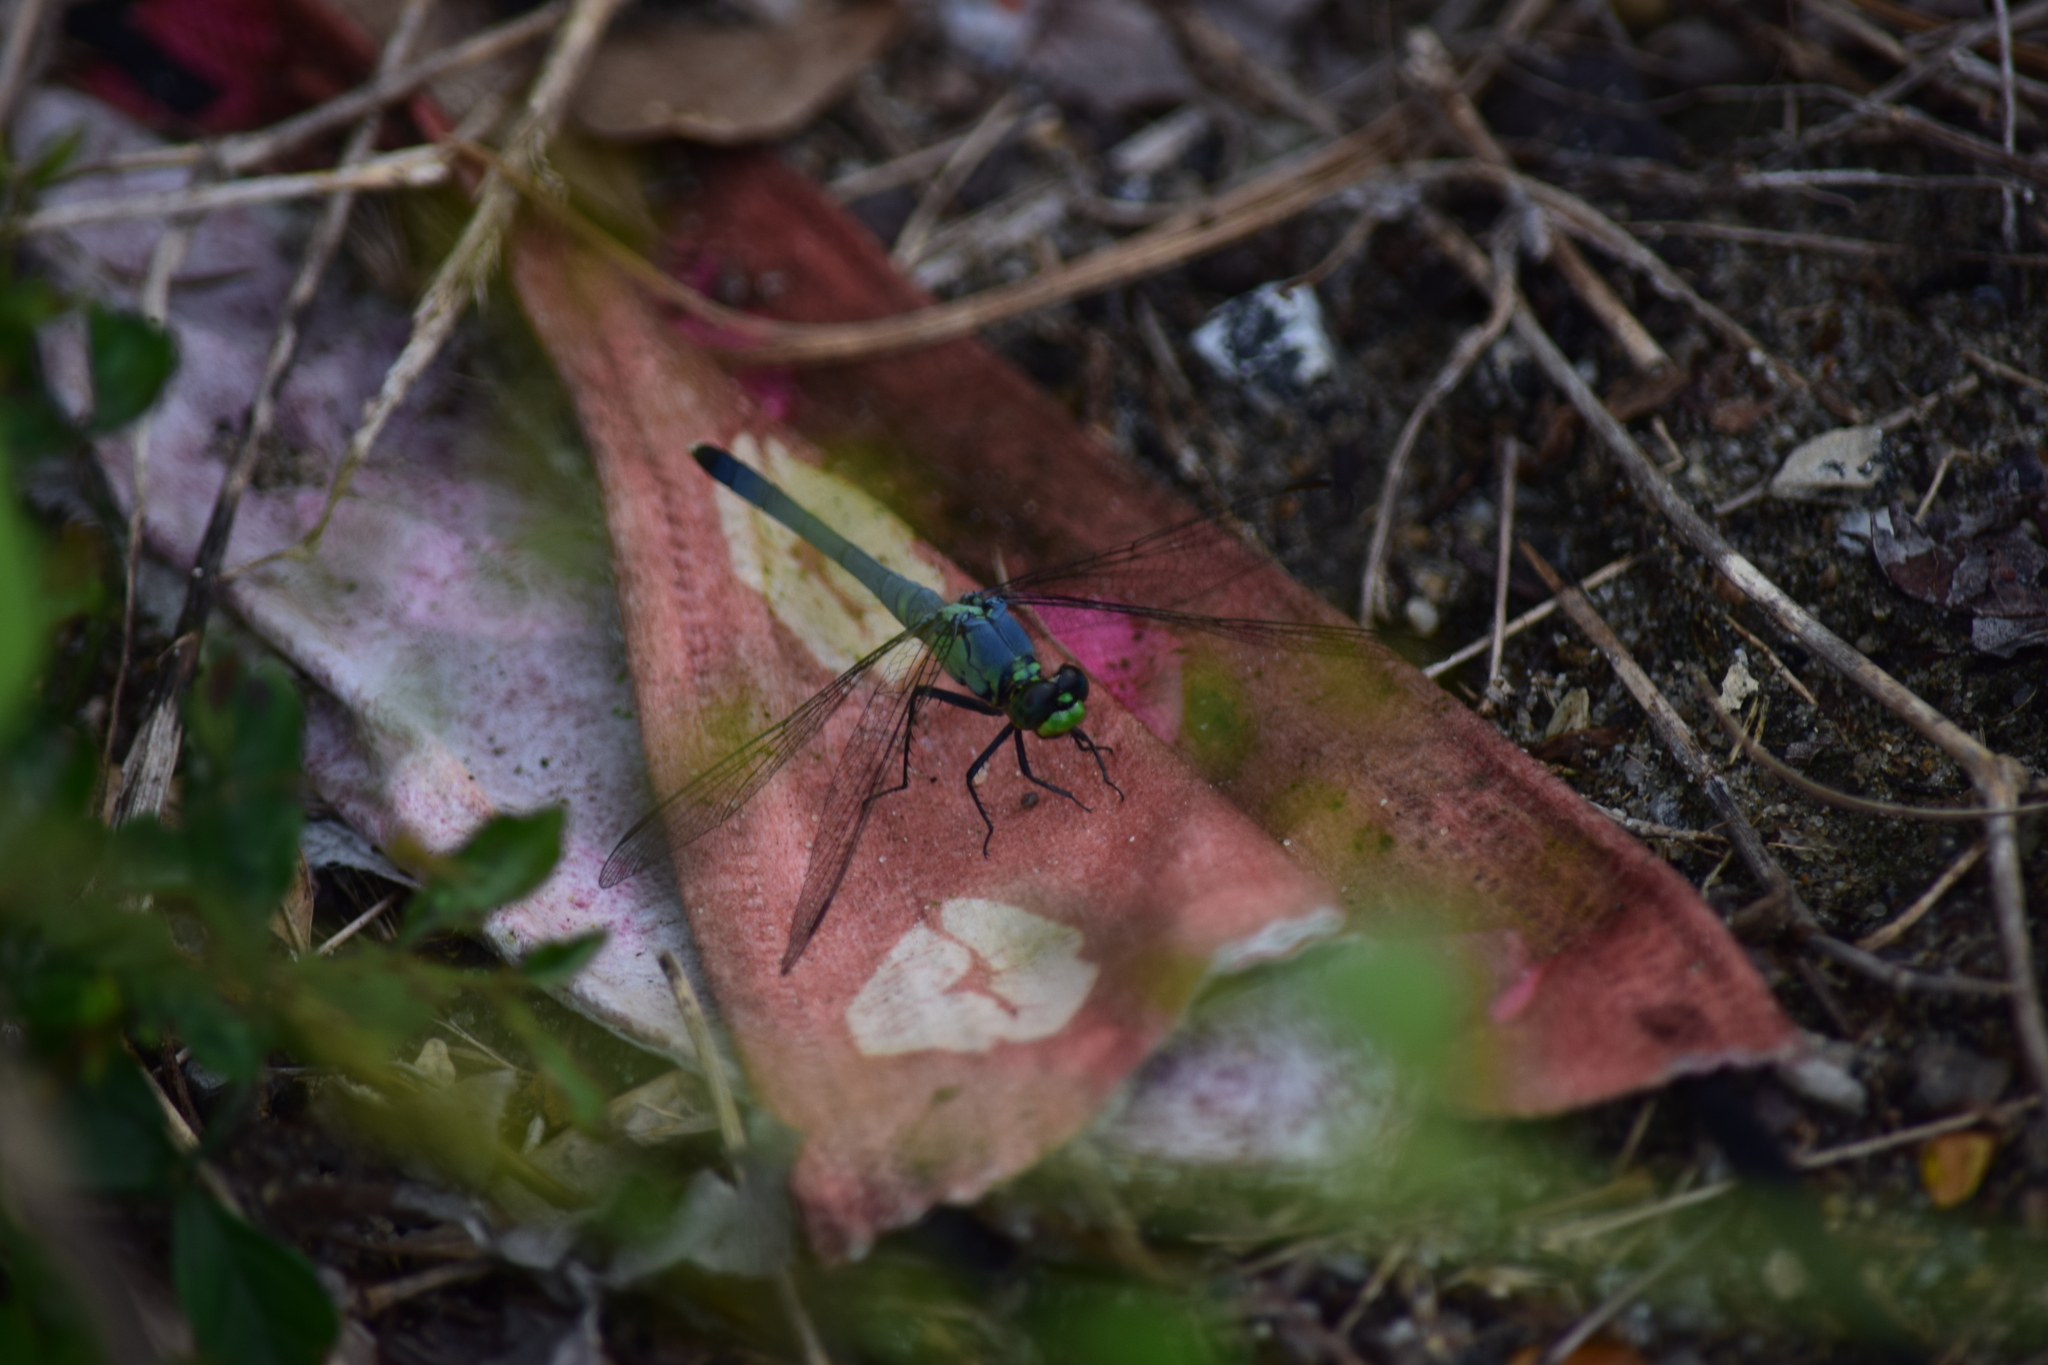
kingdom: Animalia
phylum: Arthropoda
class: Insecta
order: Odonata
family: Libellulidae
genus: Erythemis
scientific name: Erythemis simplicicollis
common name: Eastern pondhawk
